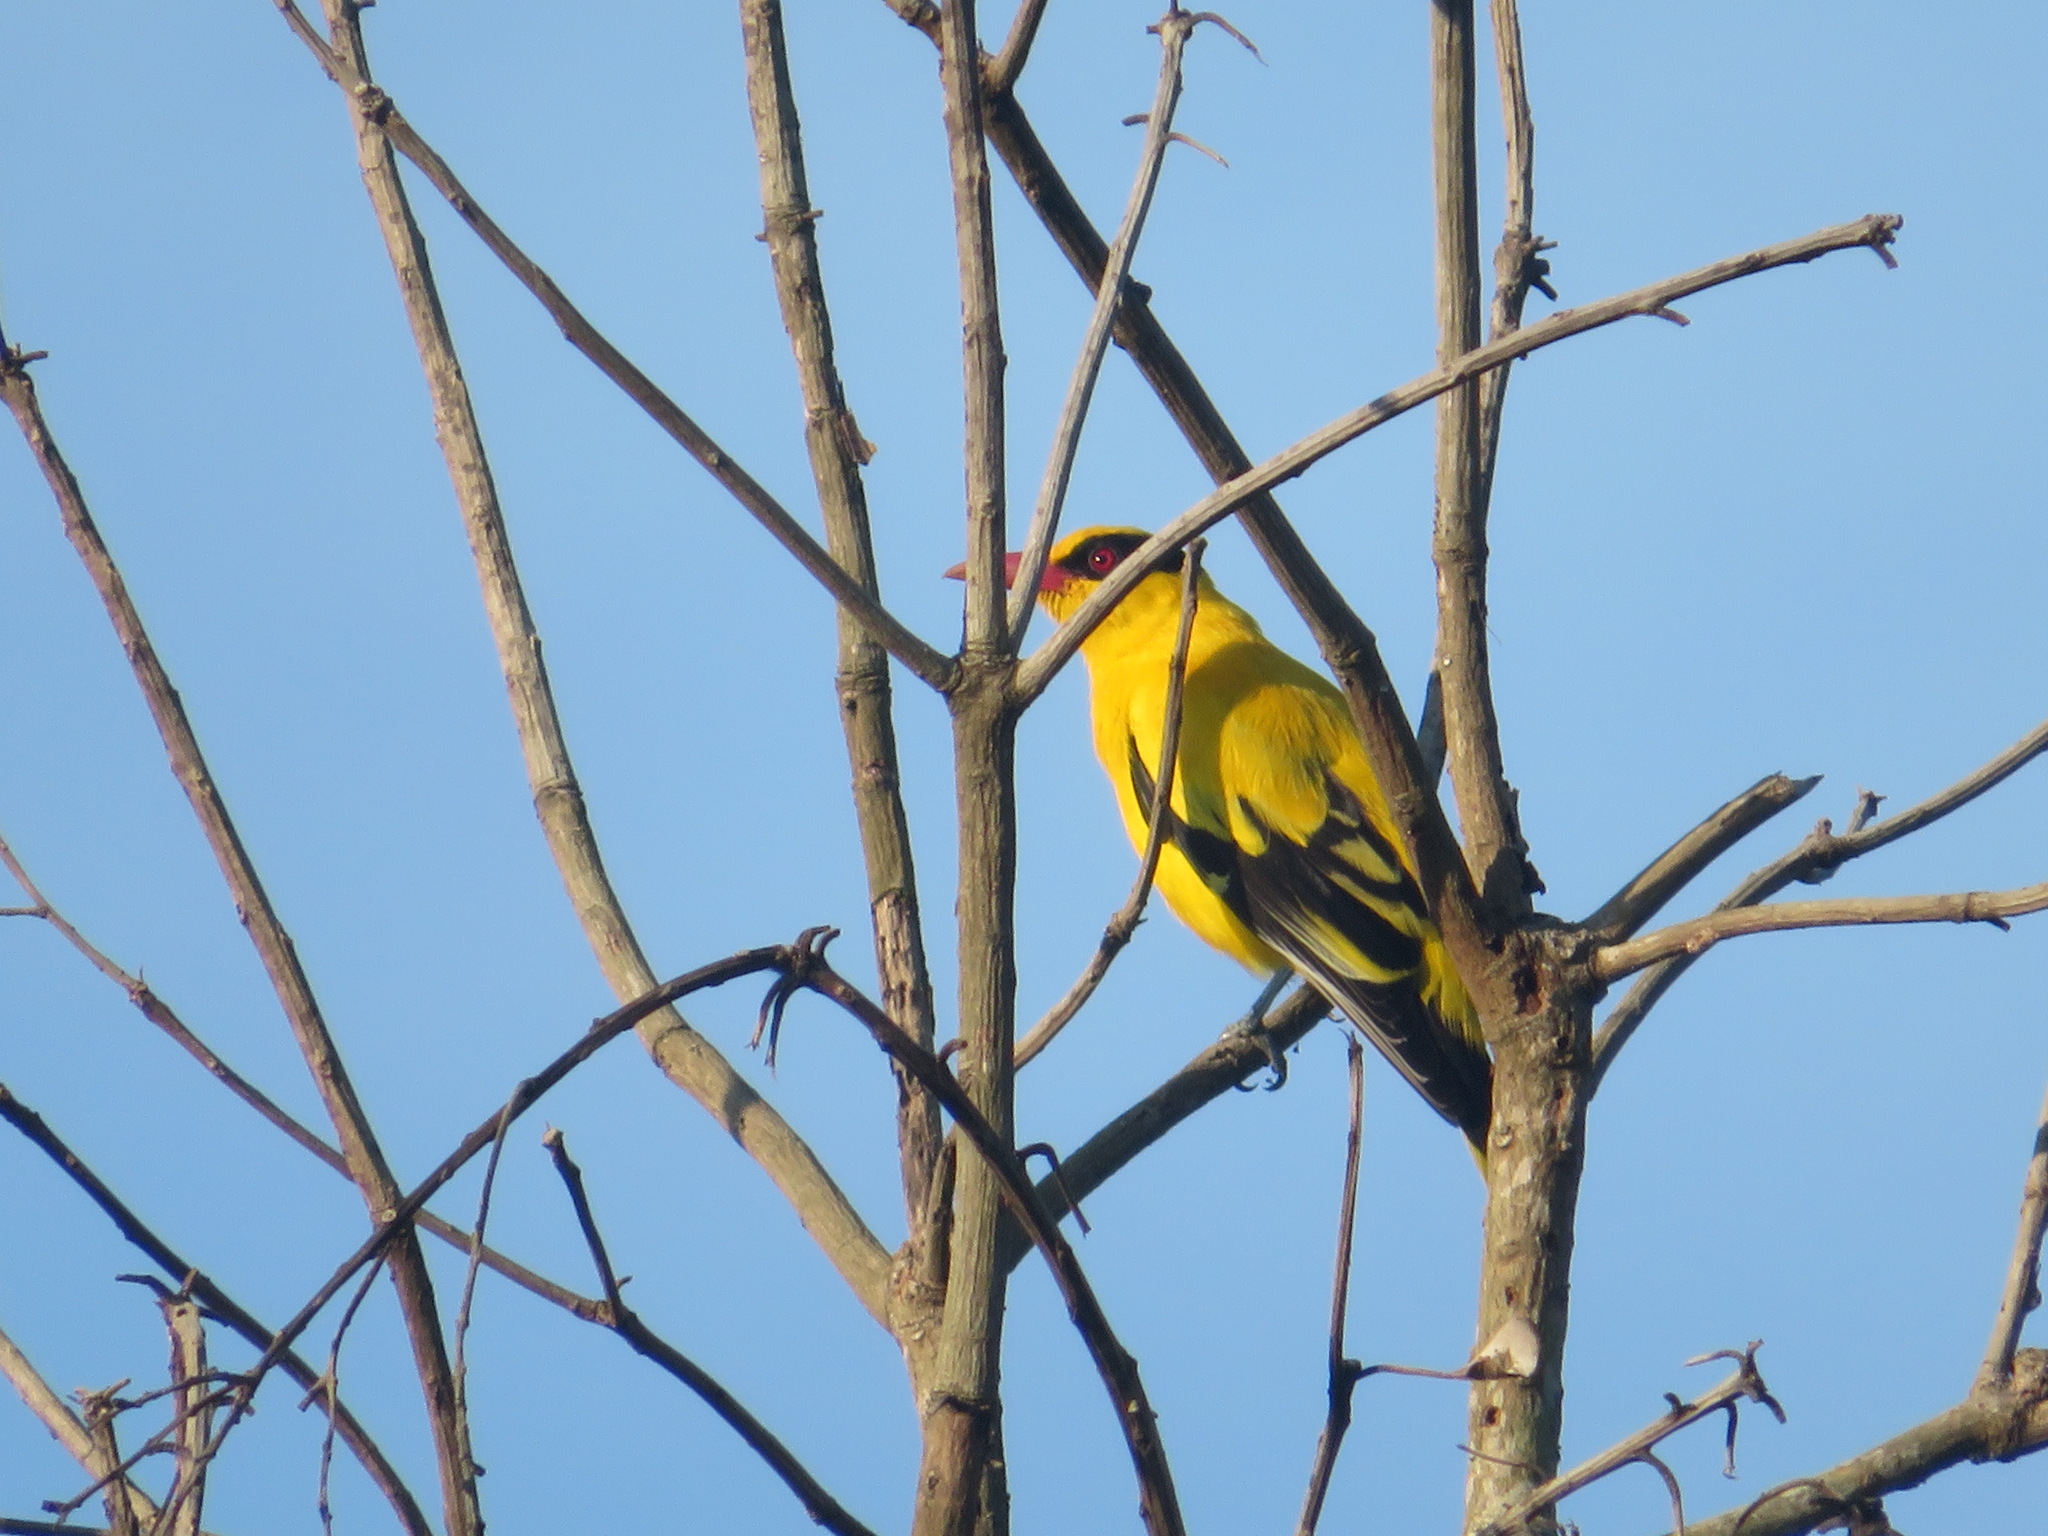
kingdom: Animalia
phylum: Chordata
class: Aves
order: Passeriformes
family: Oriolidae
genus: Oriolus
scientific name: Oriolus chinensis
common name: Black-naped oriole
